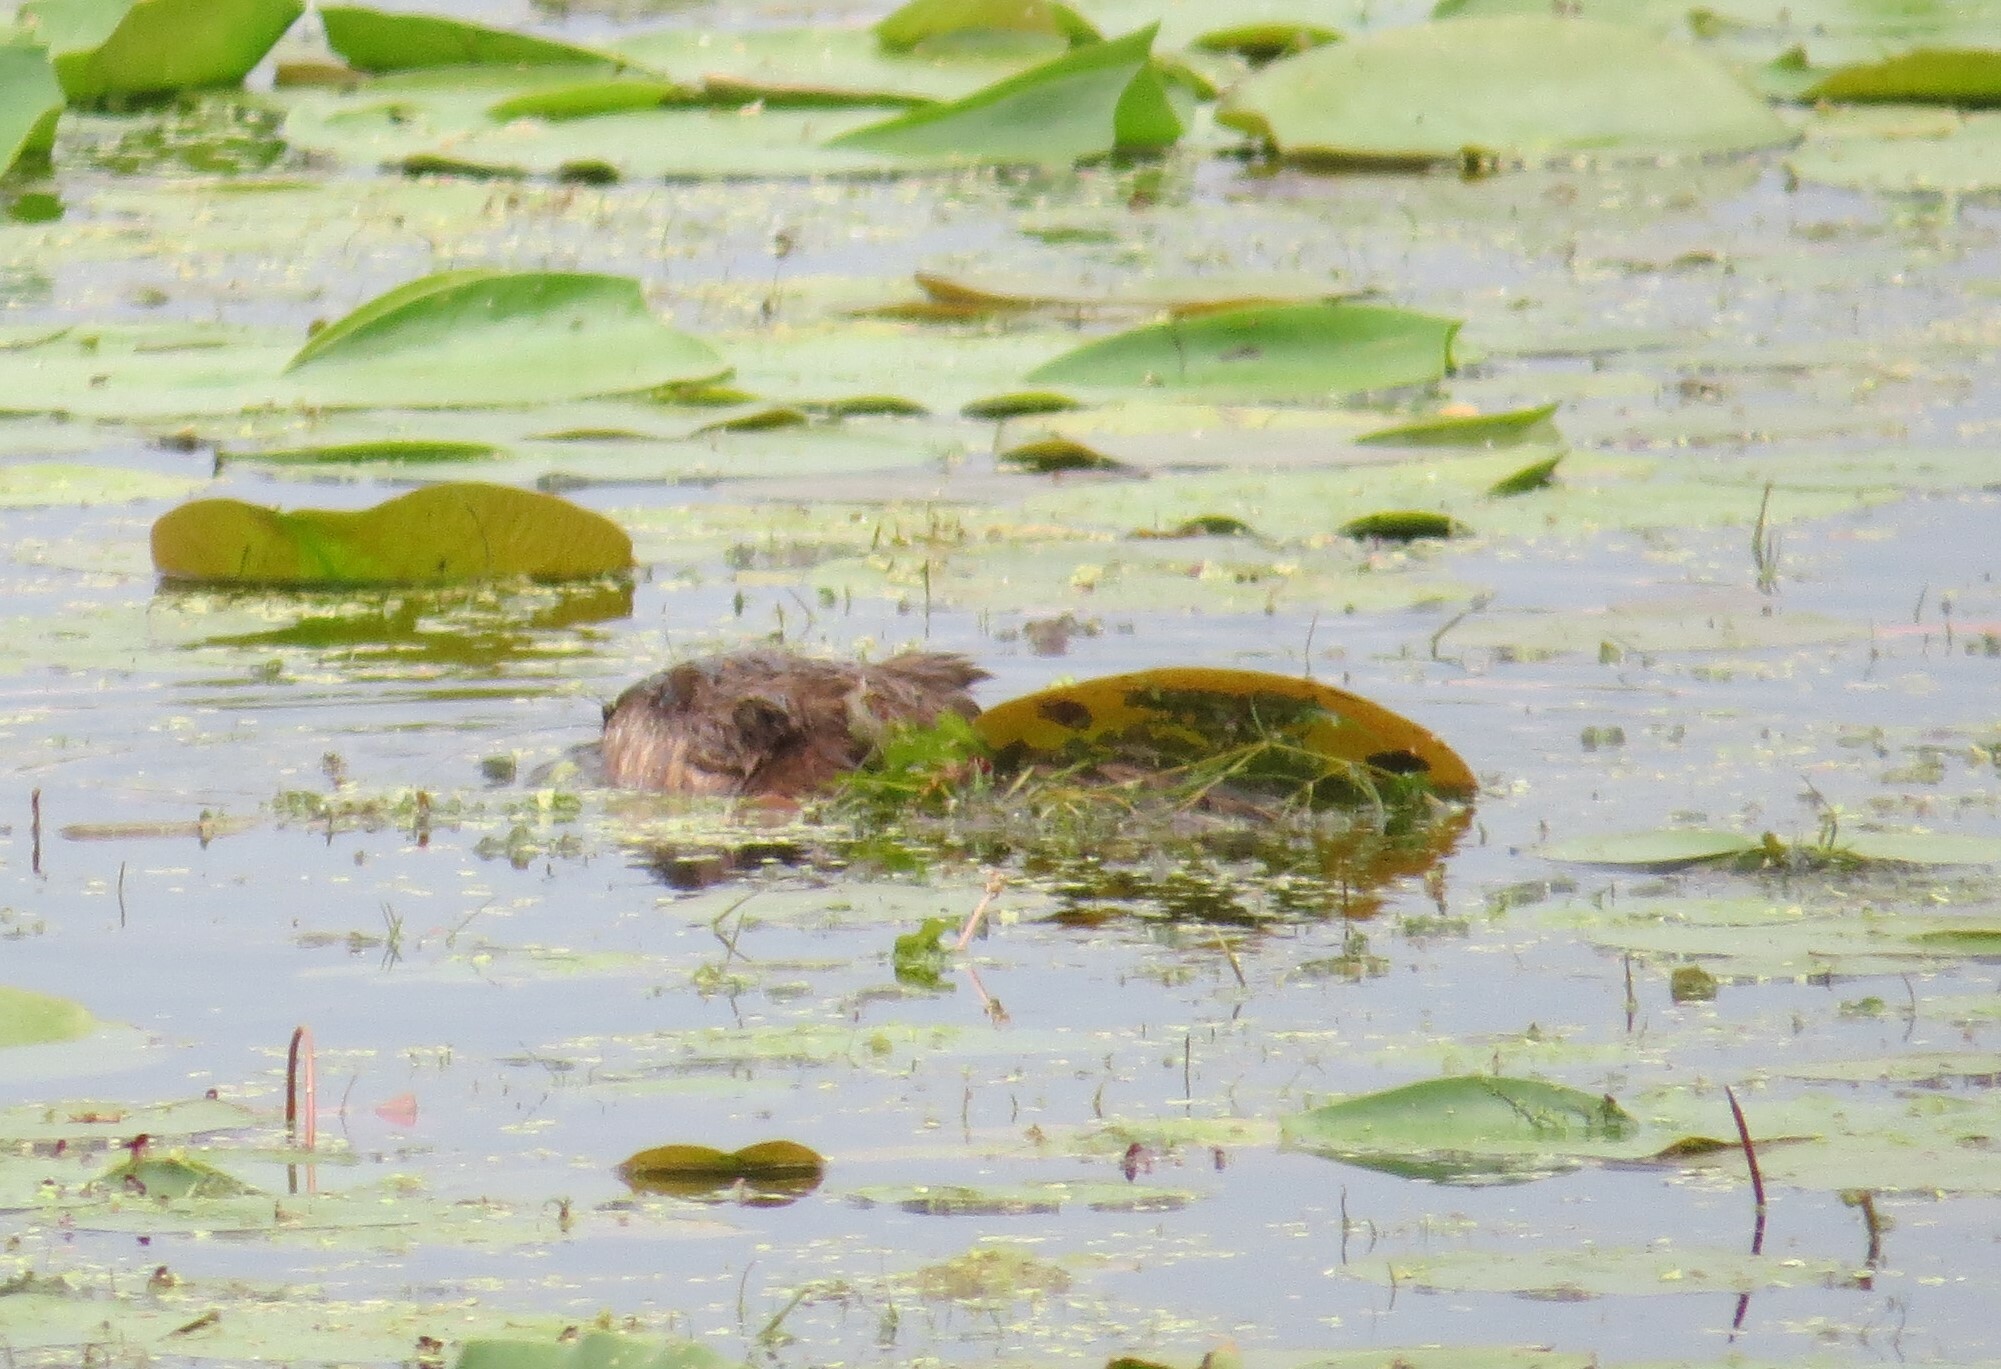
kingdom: Animalia
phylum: Chordata
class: Mammalia
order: Rodentia
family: Cricetidae
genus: Ondatra
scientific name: Ondatra zibethicus
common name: Muskrat
